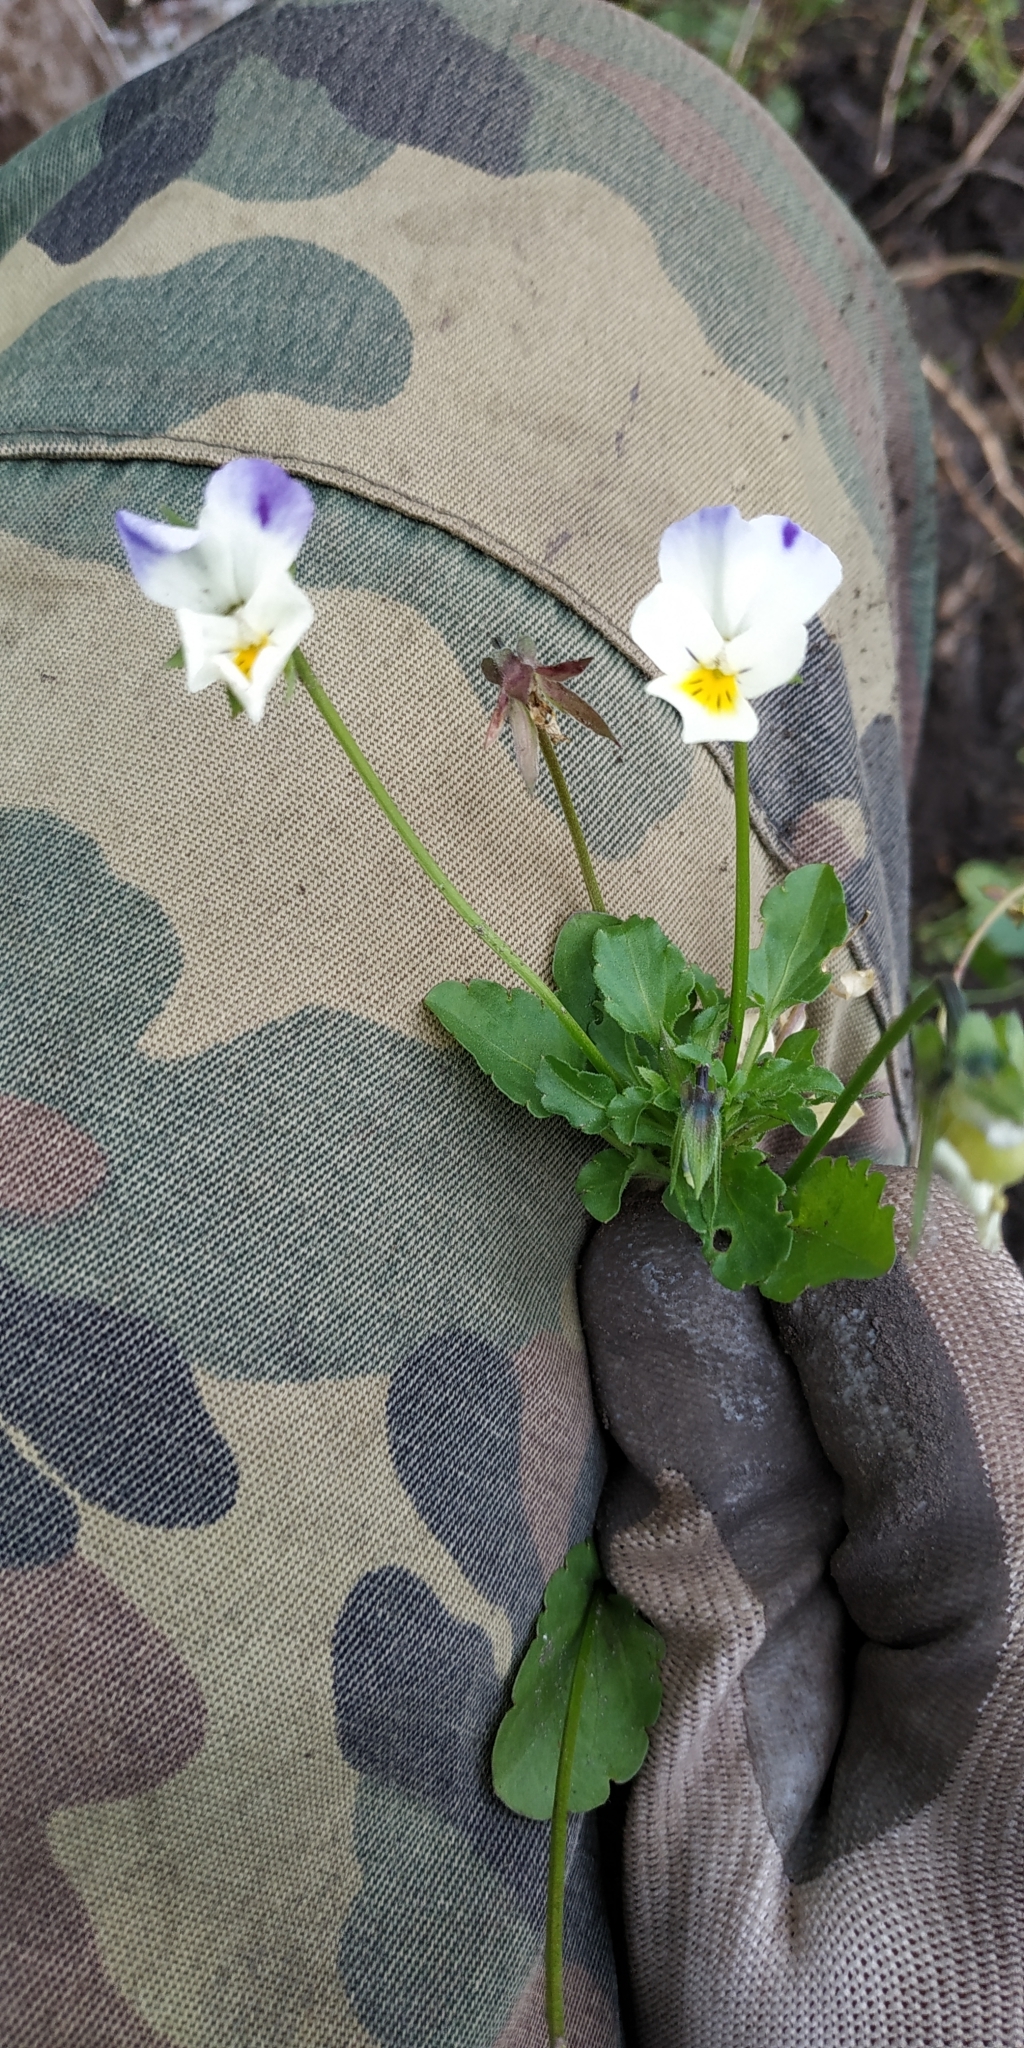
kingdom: Plantae
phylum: Tracheophyta
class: Magnoliopsida
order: Malpighiales
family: Violaceae
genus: Viola
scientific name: Viola tricolor
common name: Pansy
